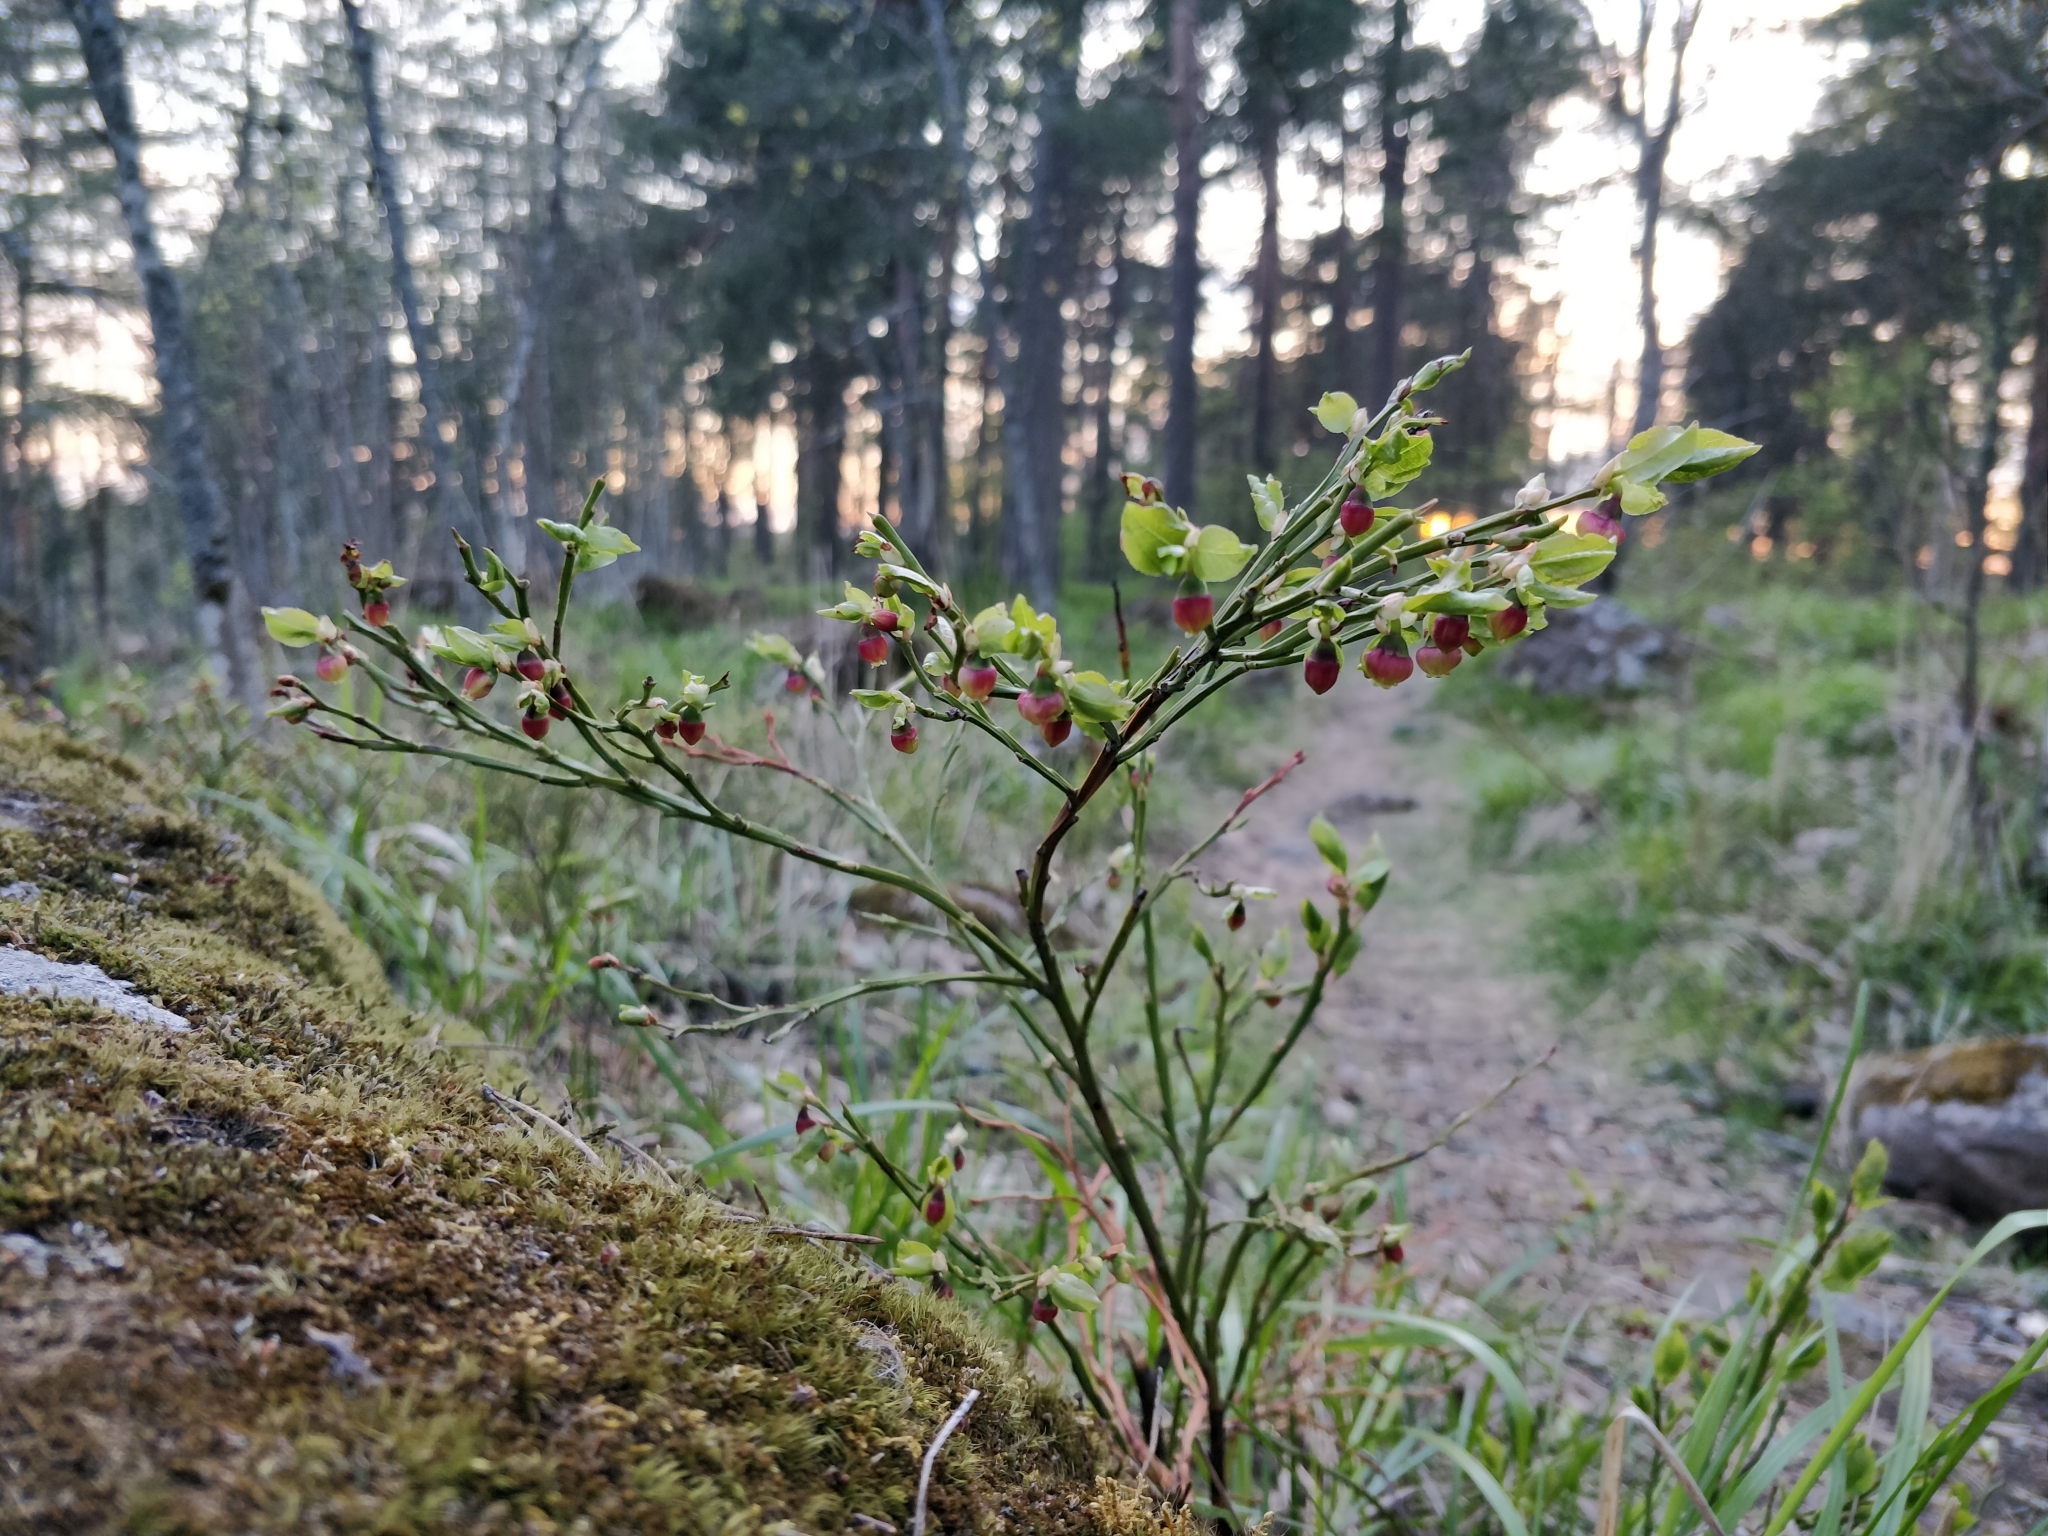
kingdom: Plantae
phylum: Tracheophyta
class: Magnoliopsida
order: Ericales
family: Ericaceae
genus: Vaccinium
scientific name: Vaccinium myrtillus
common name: Bilberry
